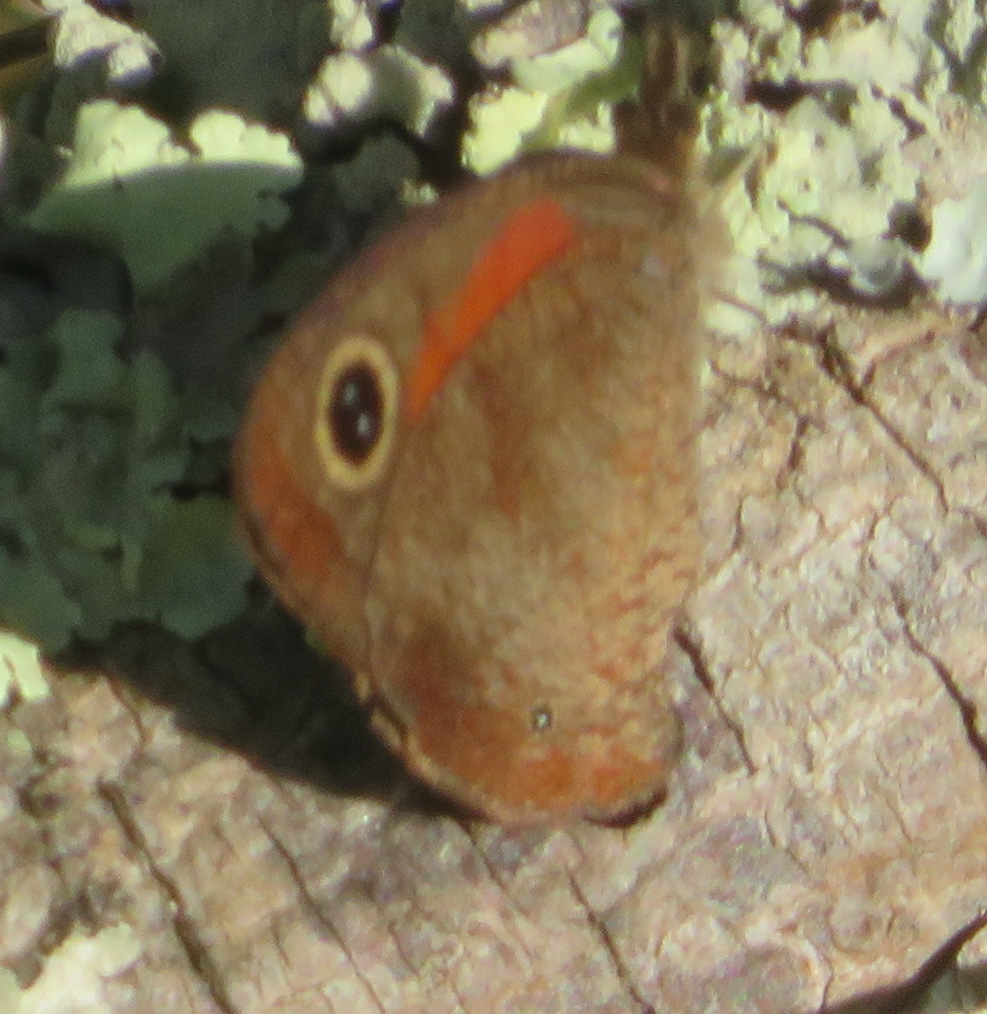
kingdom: Animalia
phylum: Arthropoda
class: Insecta
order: Lepidoptera
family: Nymphalidae
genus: Cassionympha
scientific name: Cassionympha cassius
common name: Rainforest brown
